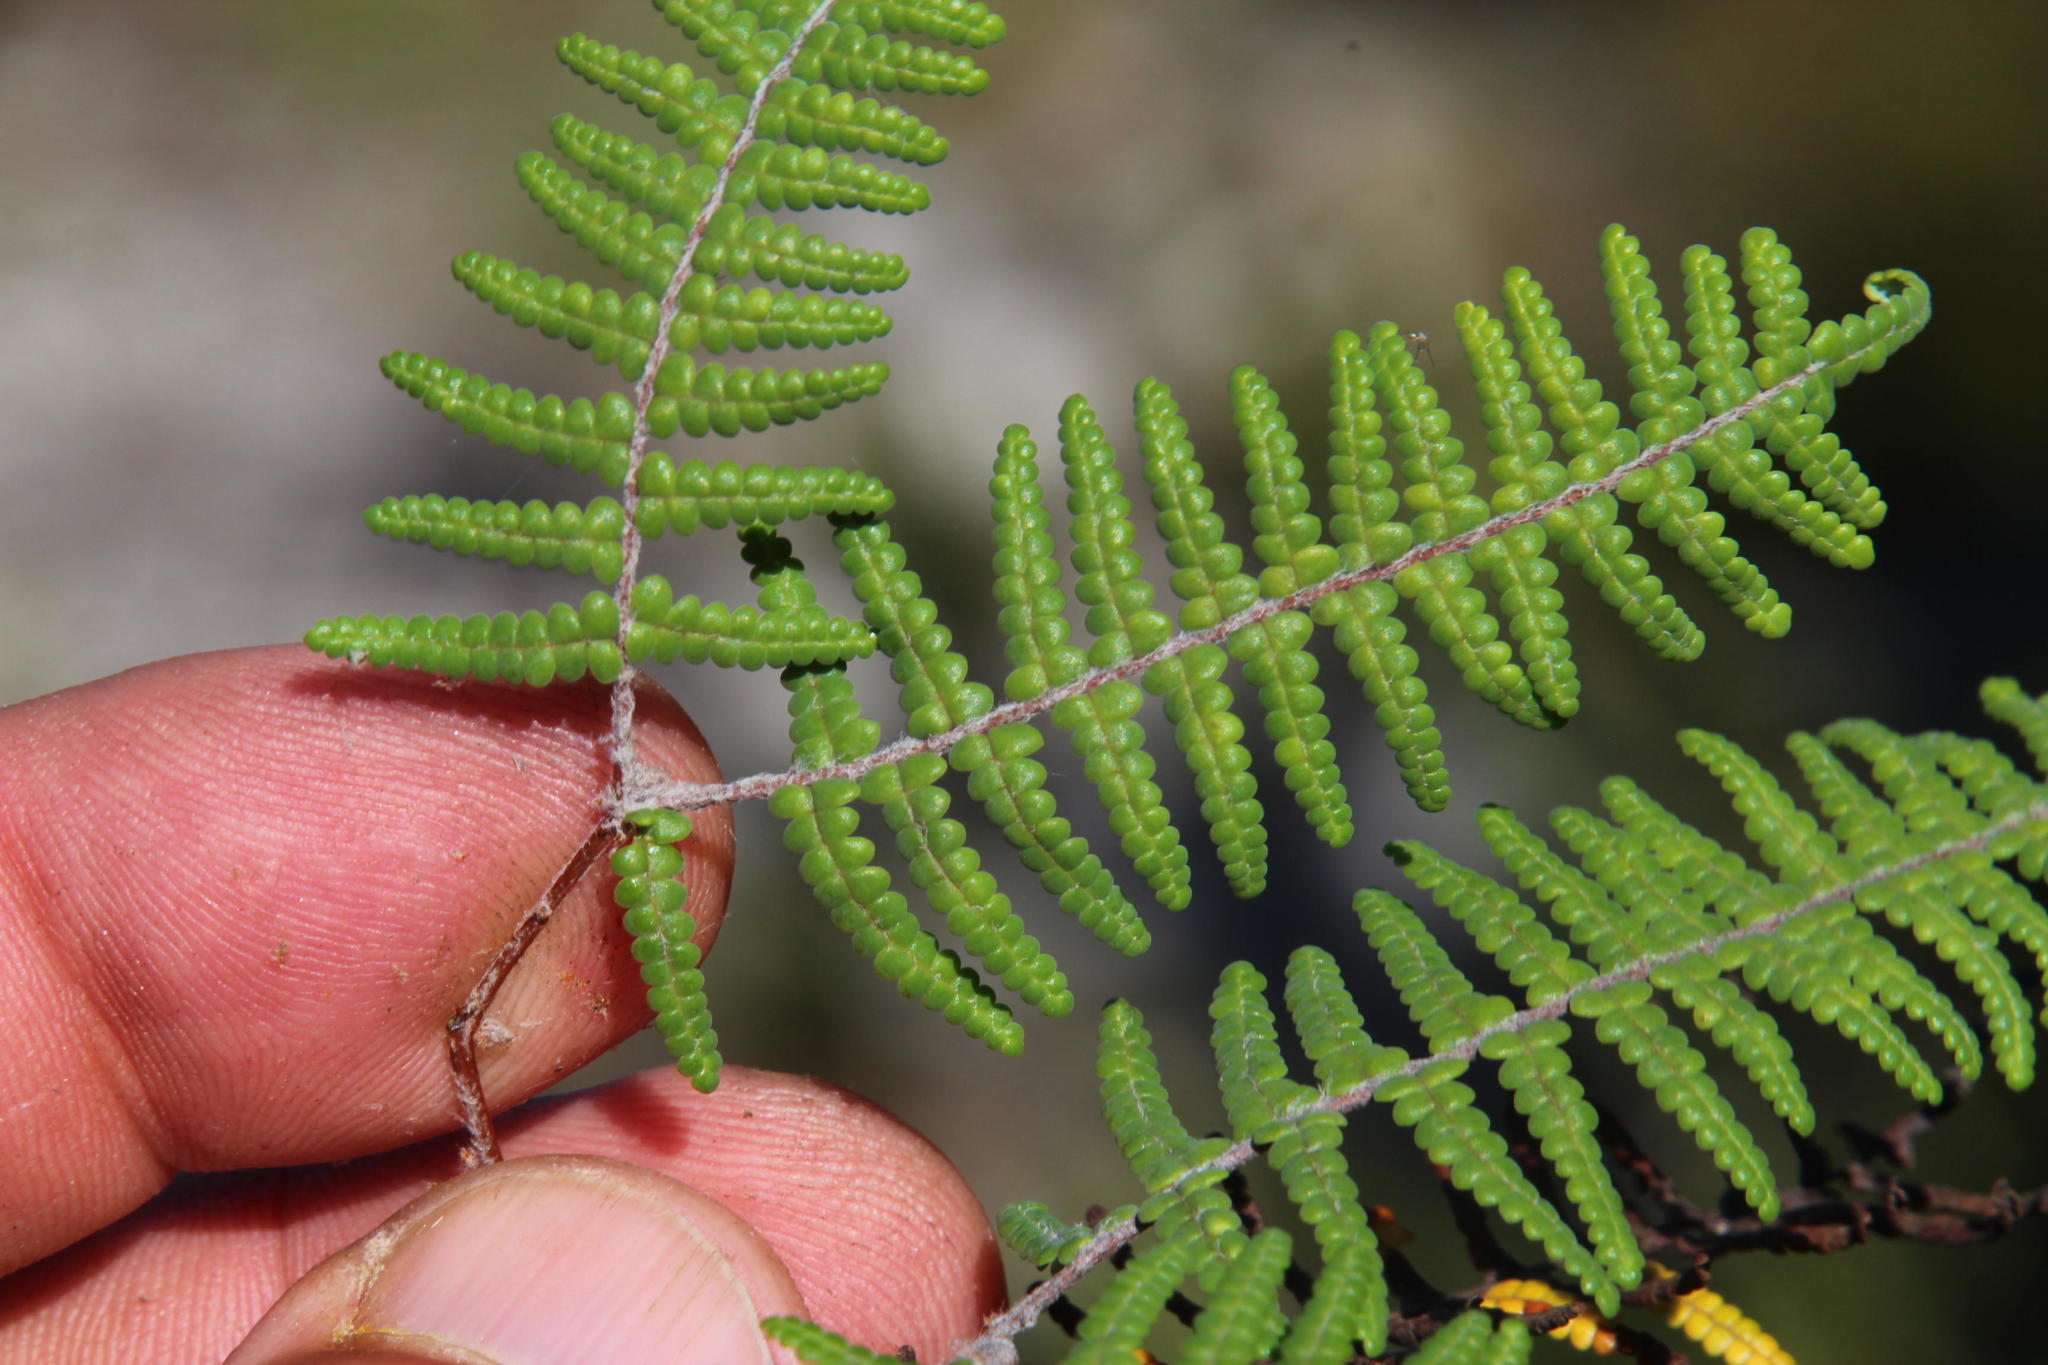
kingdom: Plantae
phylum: Tracheophyta
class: Polypodiopsida
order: Gleicheniales
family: Gleicheniaceae
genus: Gleichenia
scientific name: Gleichenia polypodioides
